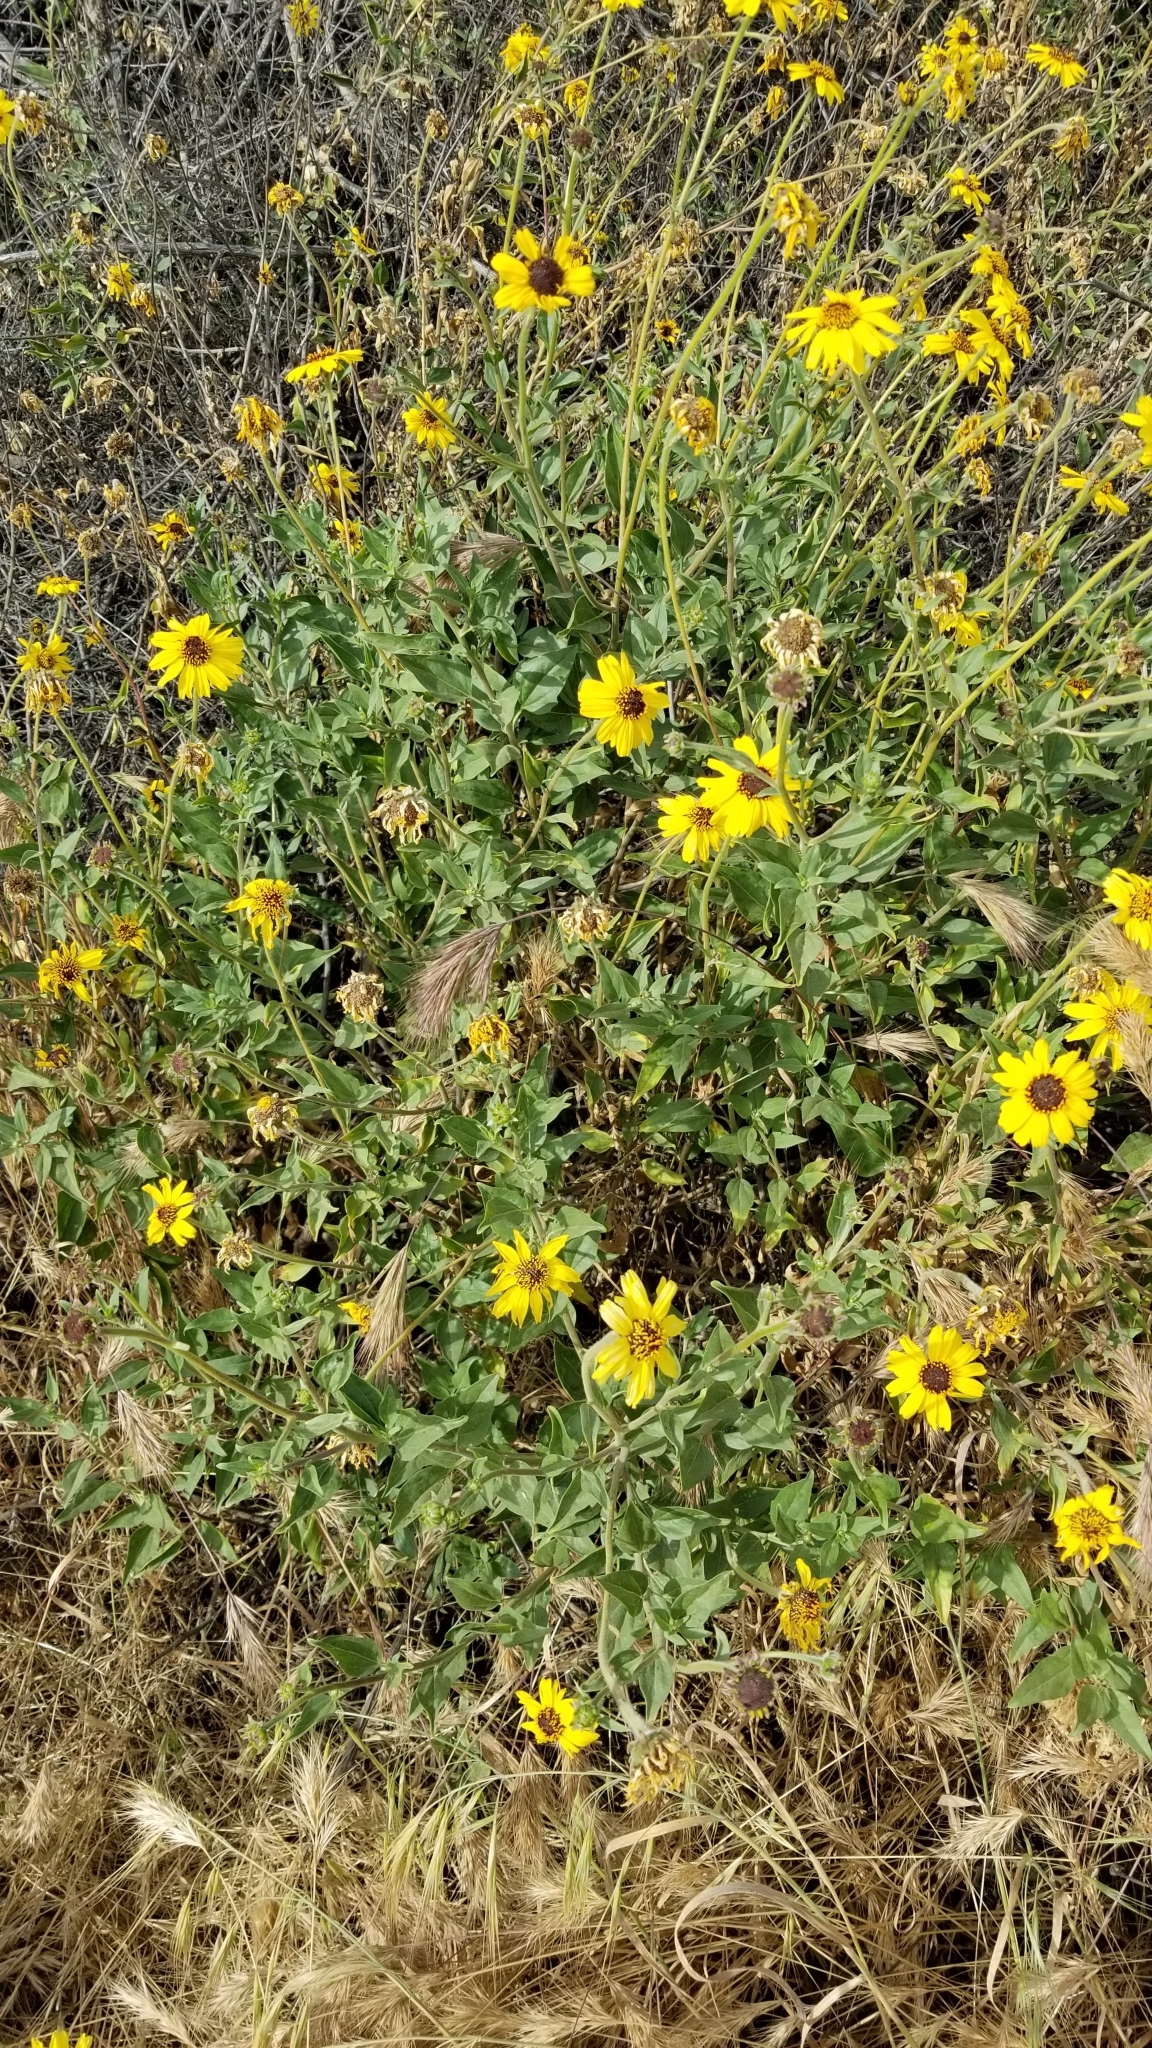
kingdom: Plantae
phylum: Tracheophyta
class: Magnoliopsida
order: Asterales
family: Asteraceae
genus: Encelia
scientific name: Encelia californica
